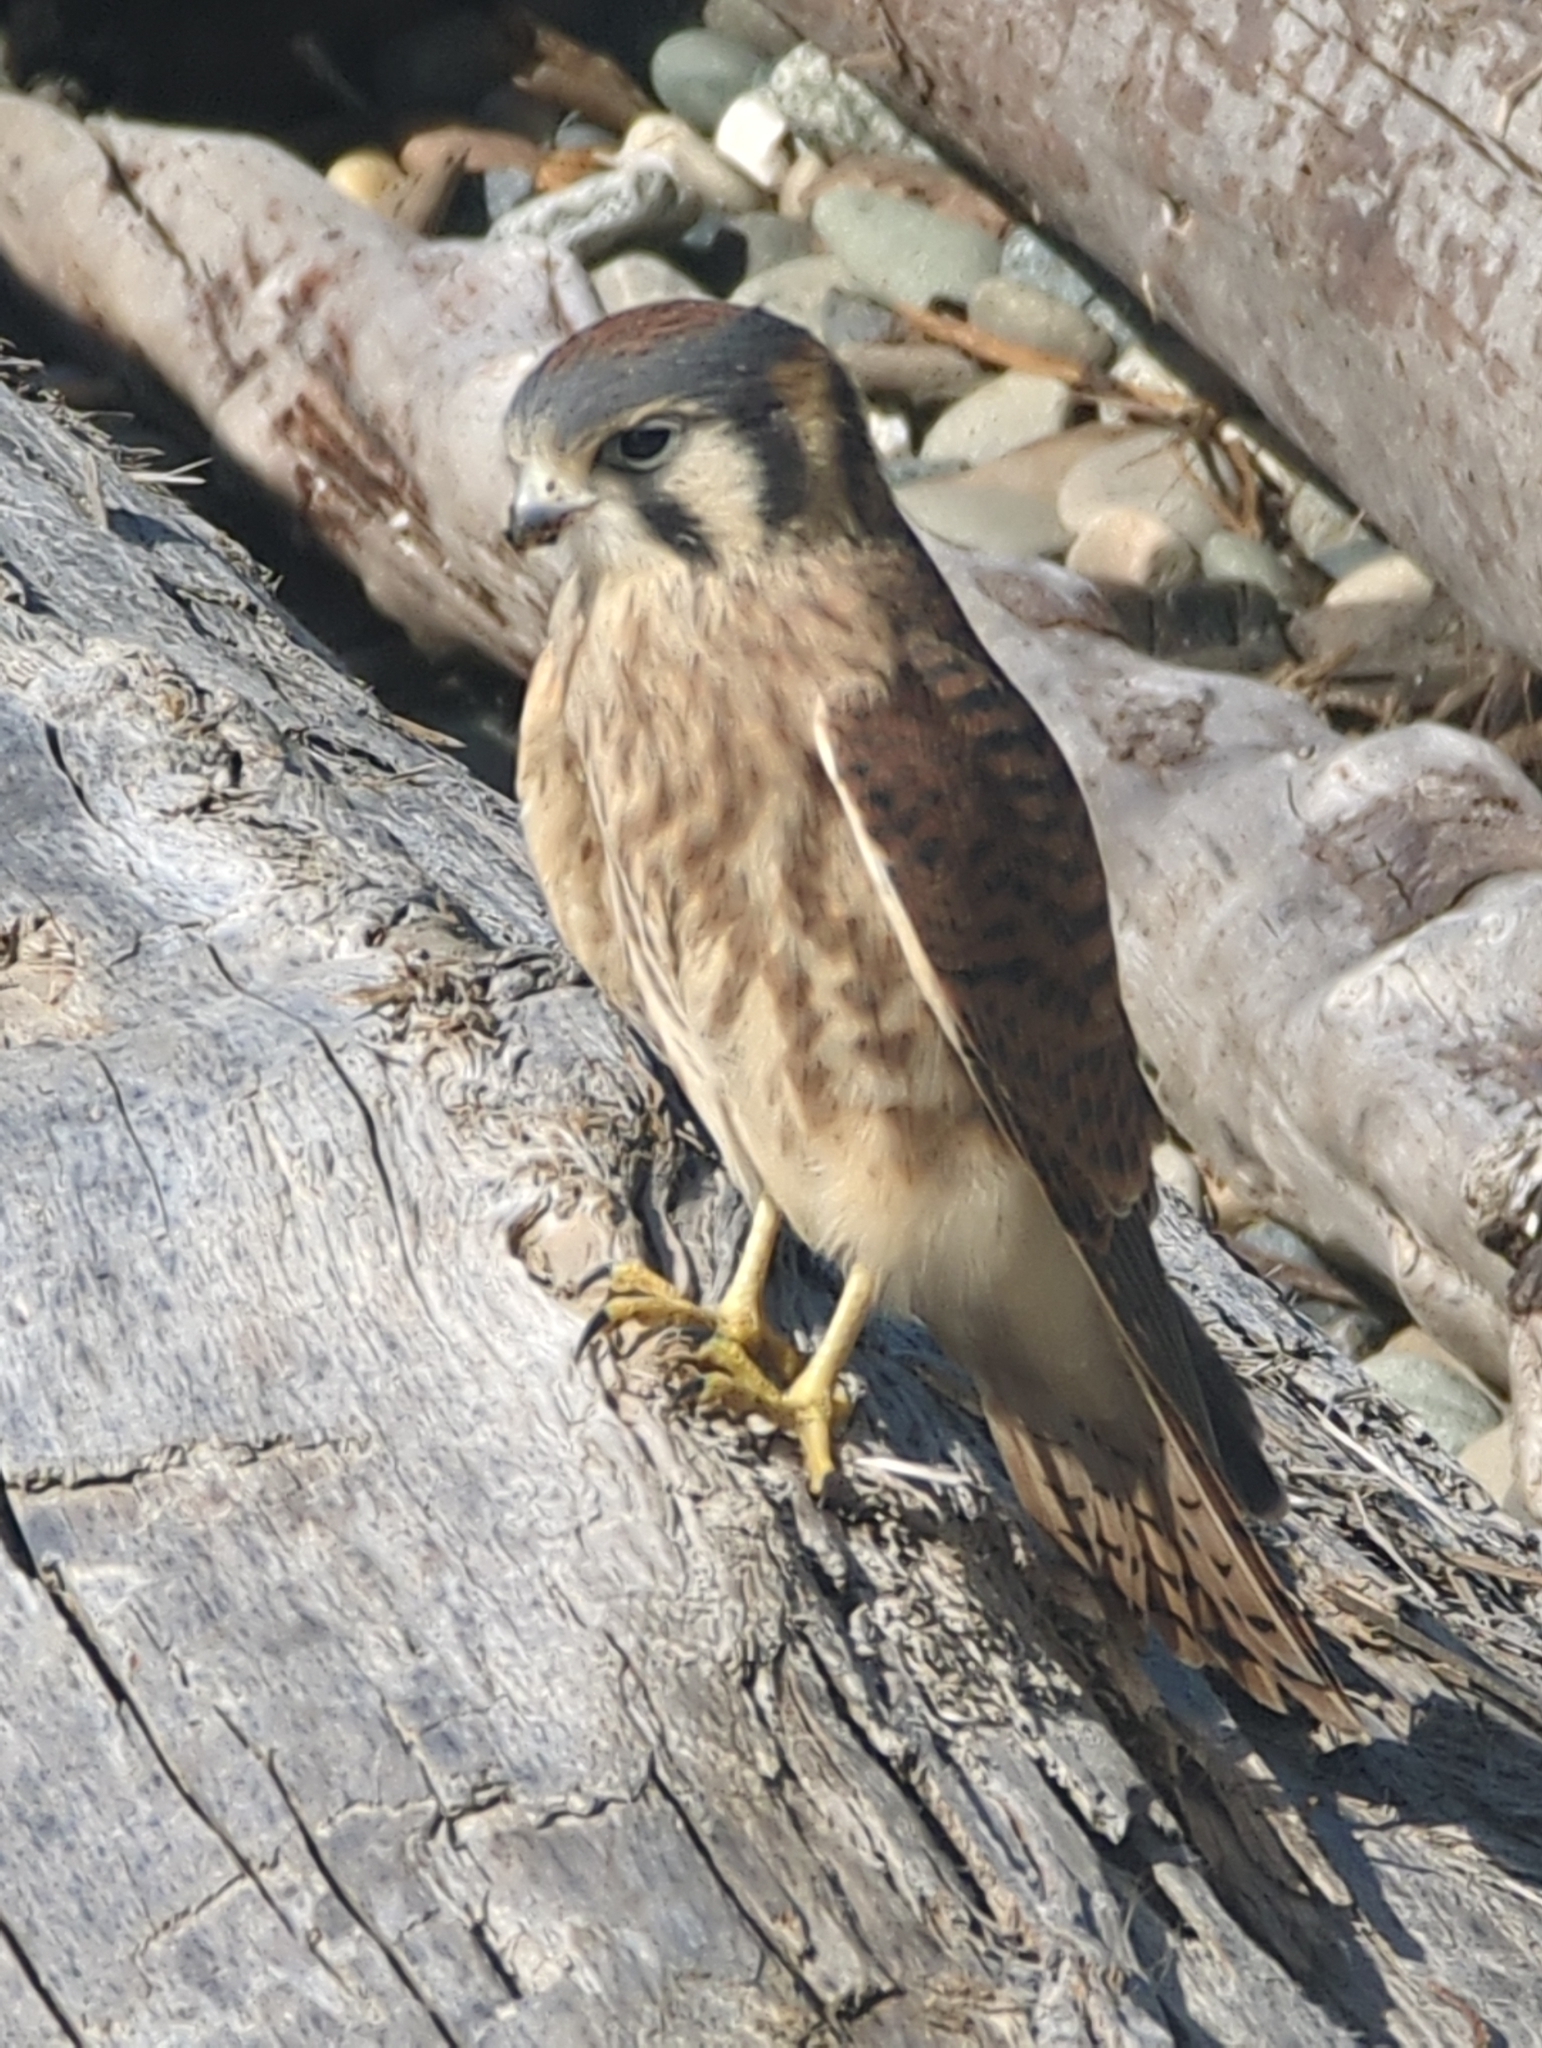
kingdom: Animalia
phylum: Chordata
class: Aves
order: Falconiformes
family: Falconidae
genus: Falco
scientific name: Falco sparverius
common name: American kestrel
